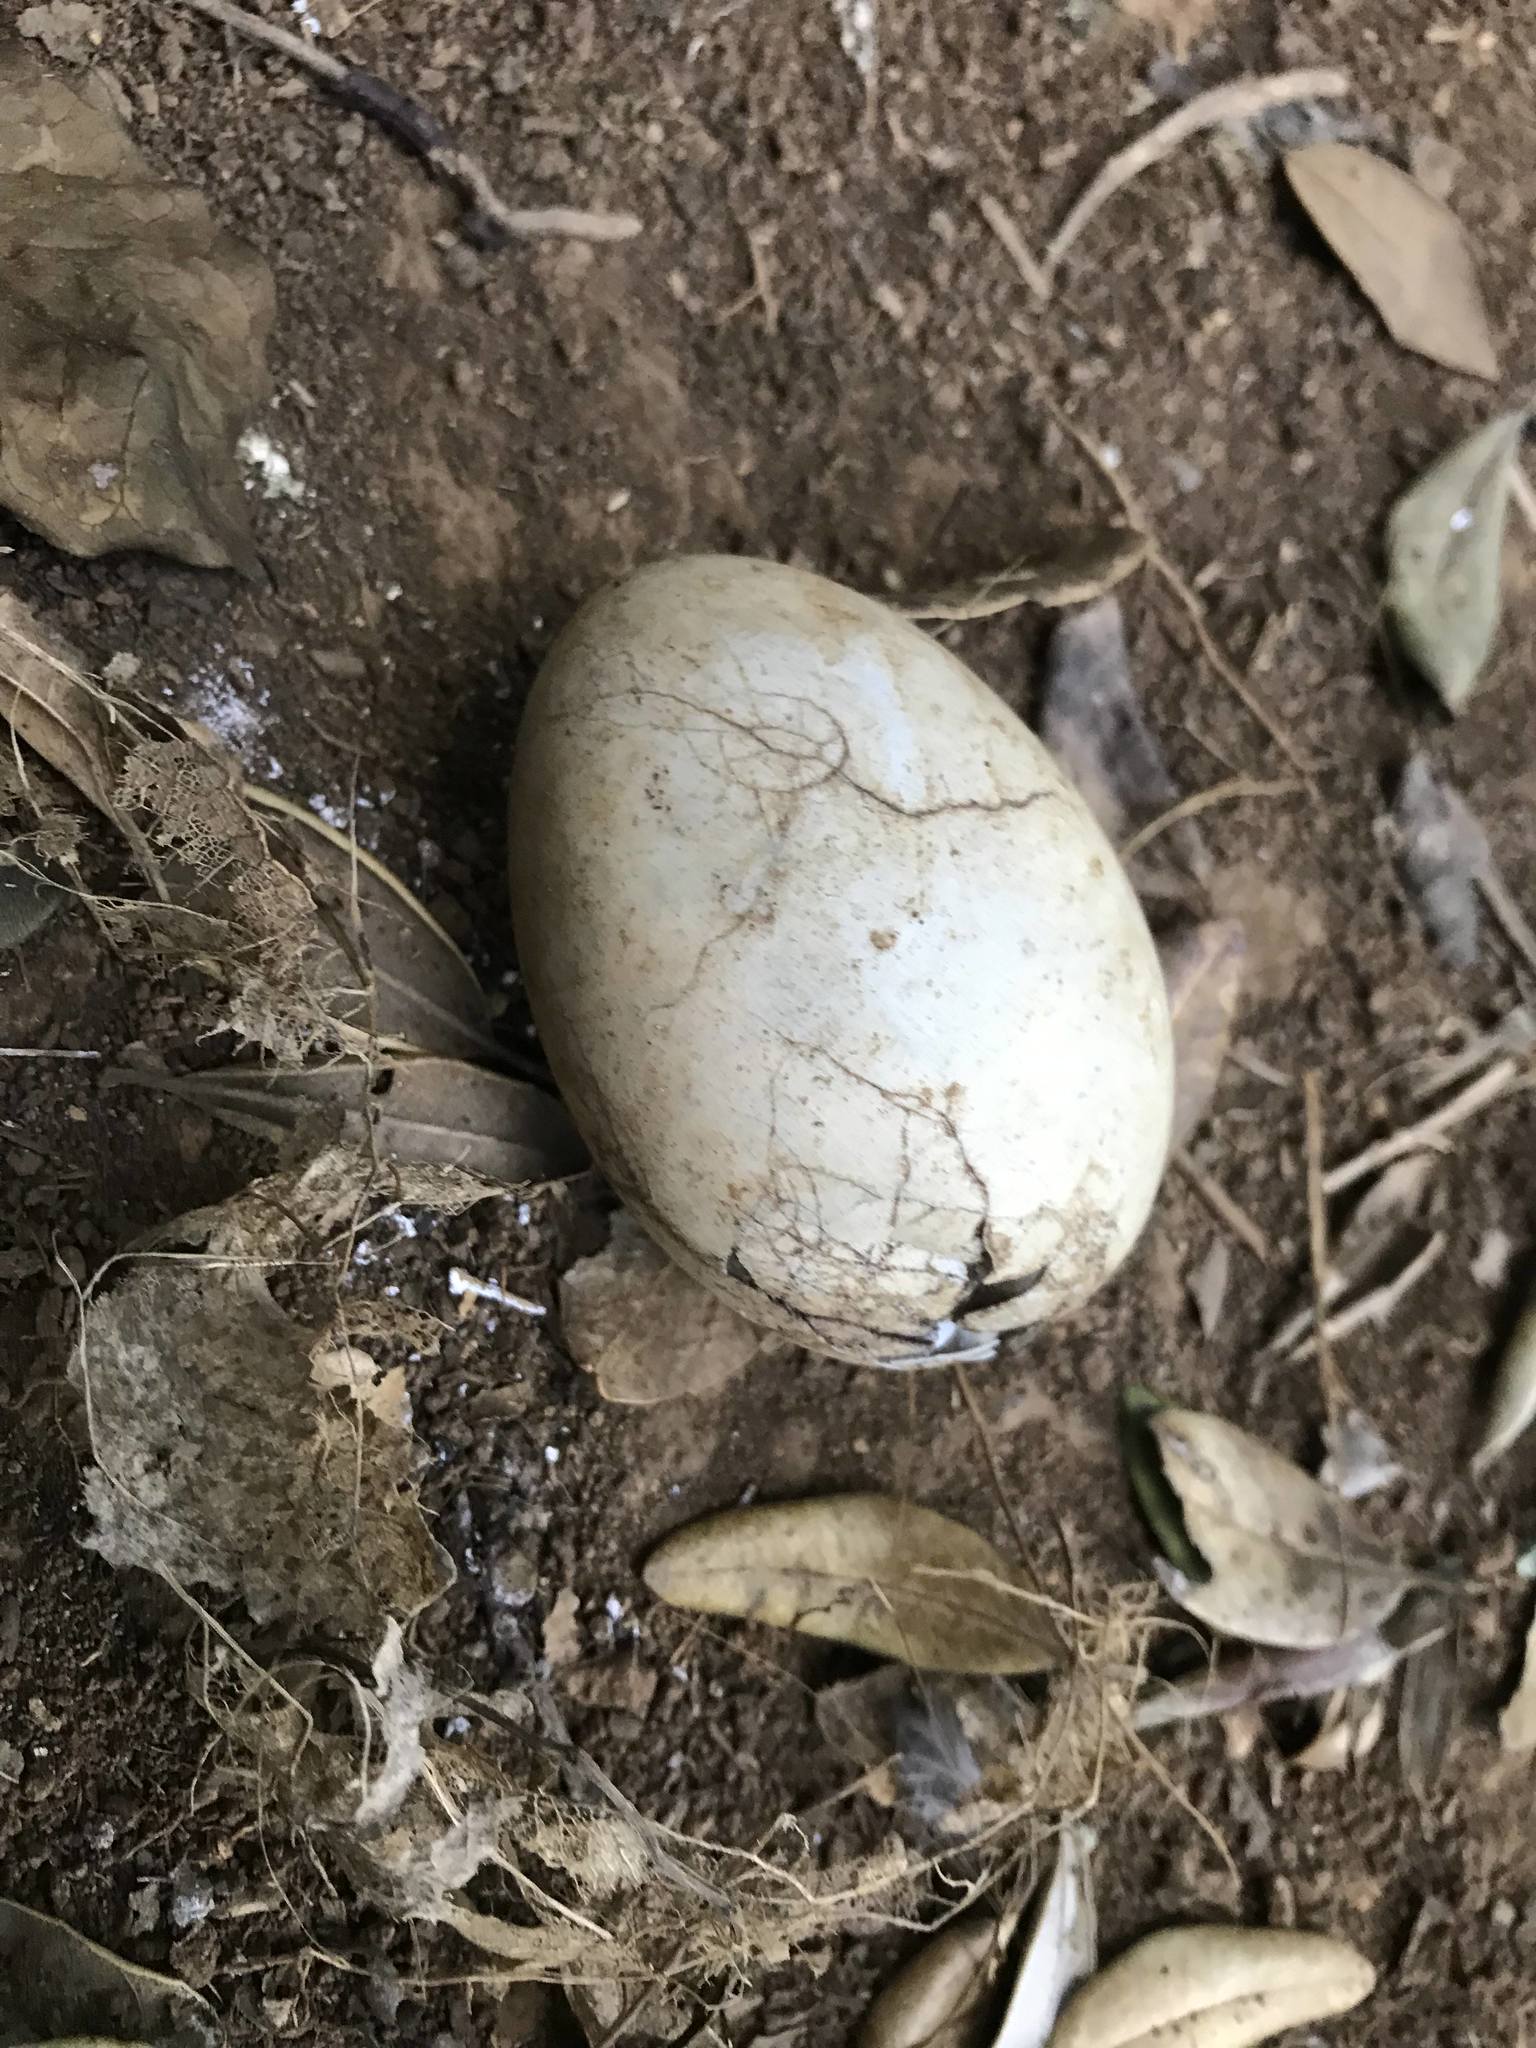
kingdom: Animalia
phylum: Chordata
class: Aves
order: Procellariiformes
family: Procellariidae
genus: Pterodroma
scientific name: Pterodroma macroptera
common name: Great-winged petrel
